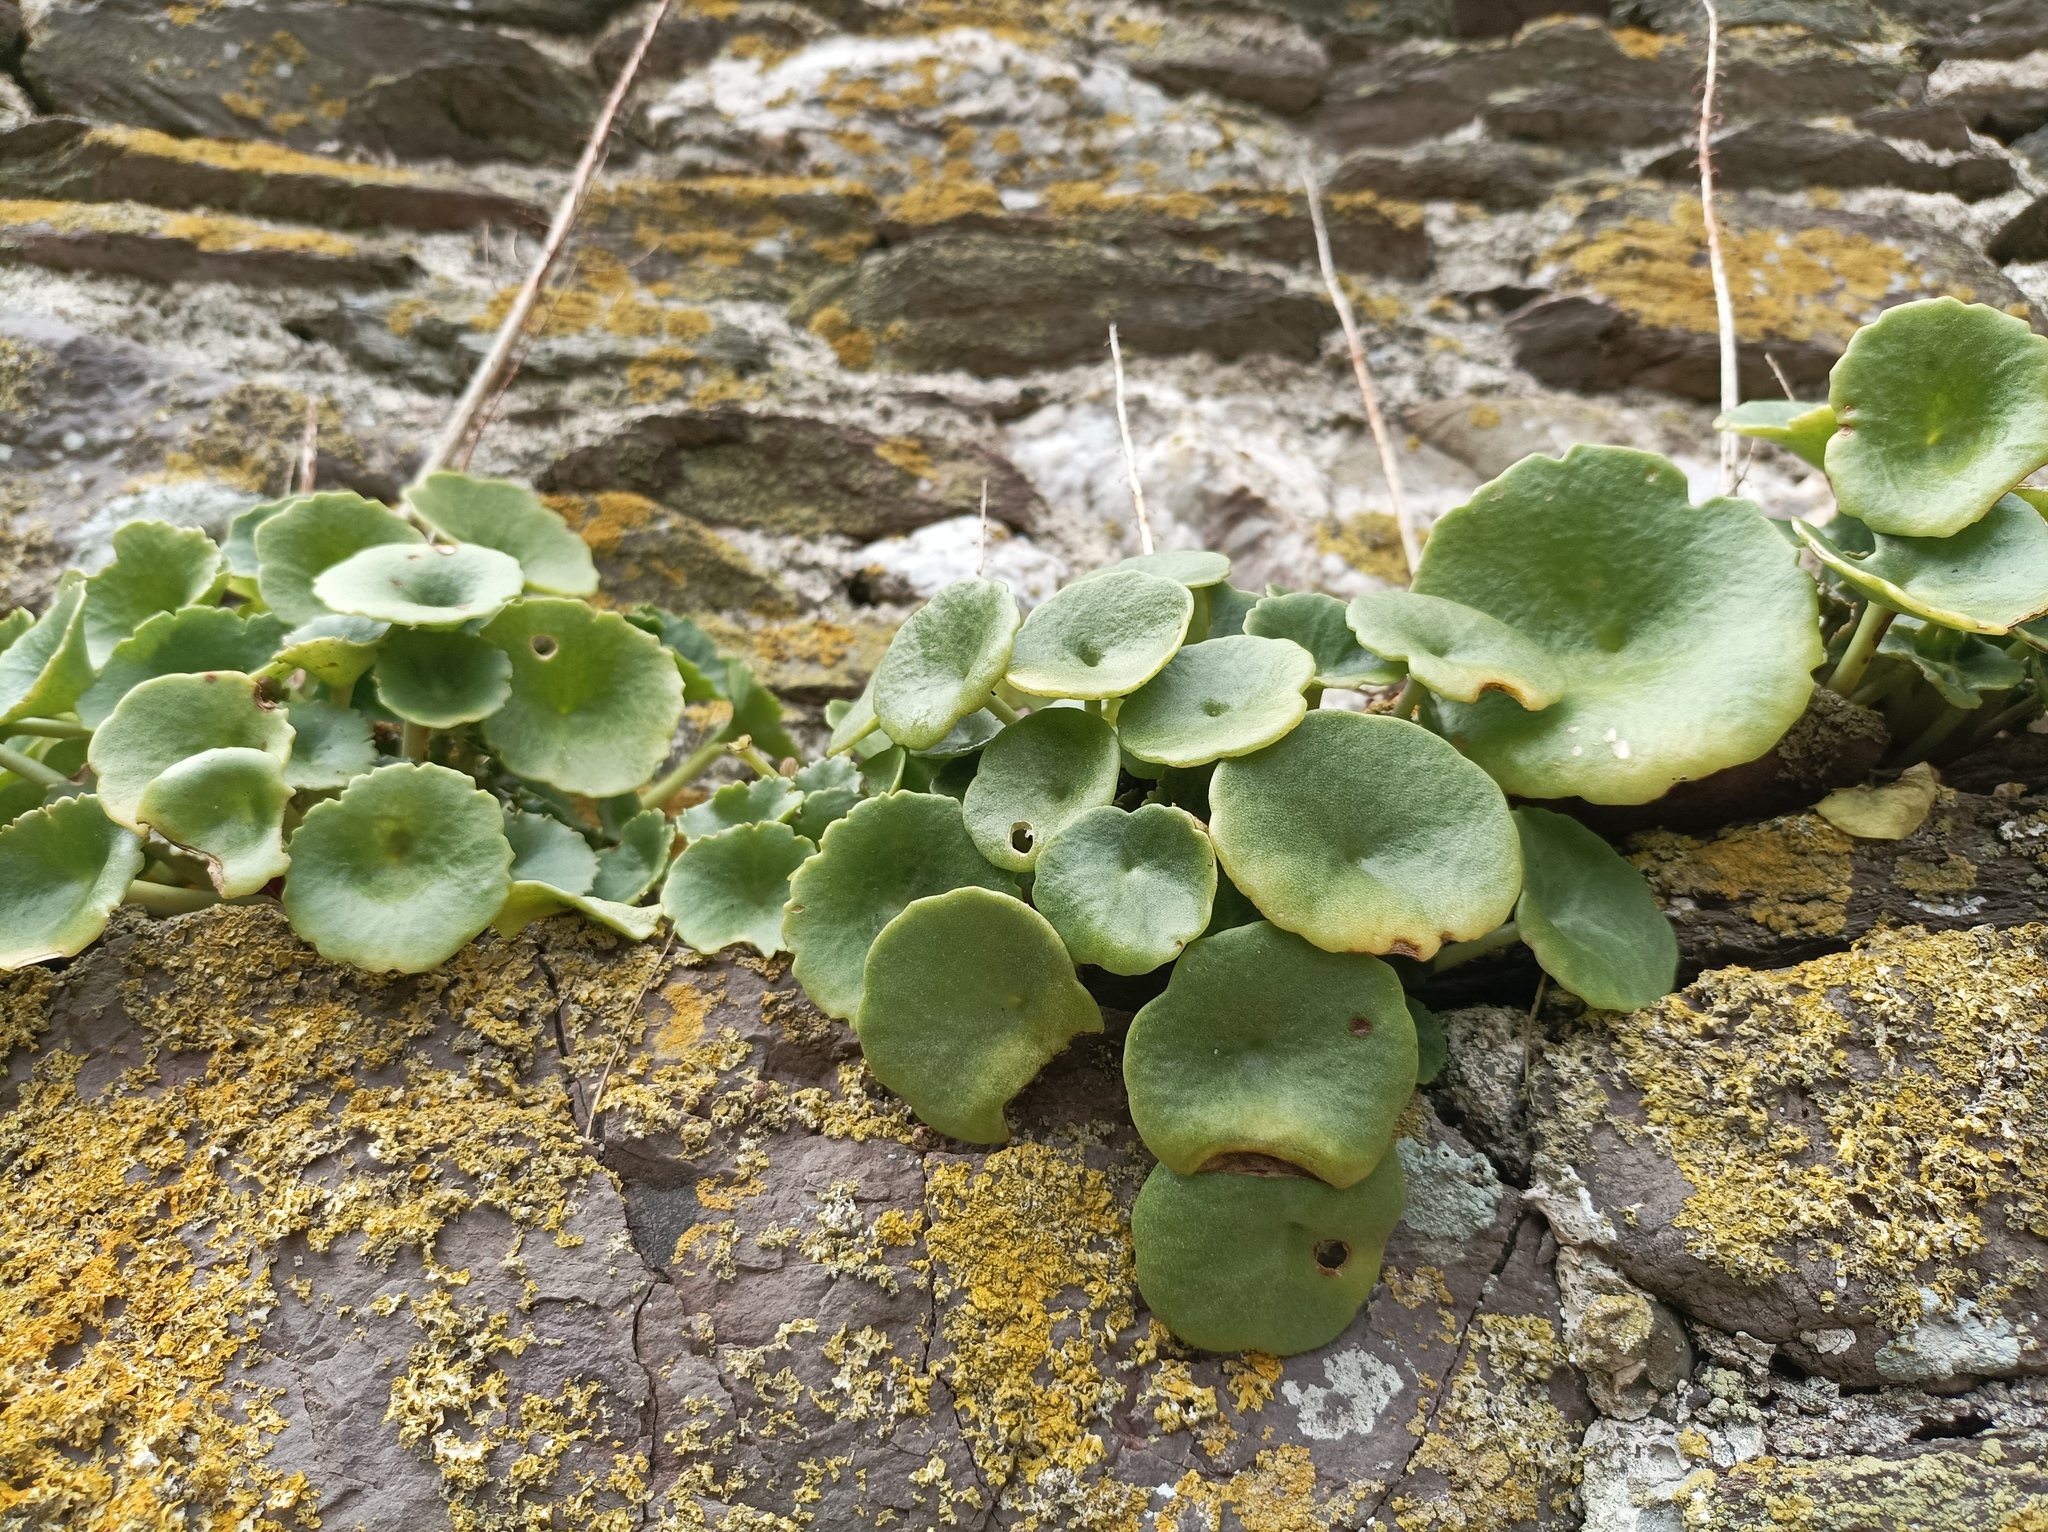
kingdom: Plantae
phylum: Tracheophyta
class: Magnoliopsida
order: Saxifragales
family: Crassulaceae
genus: Umbilicus
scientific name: Umbilicus rupestris
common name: Navelwort
